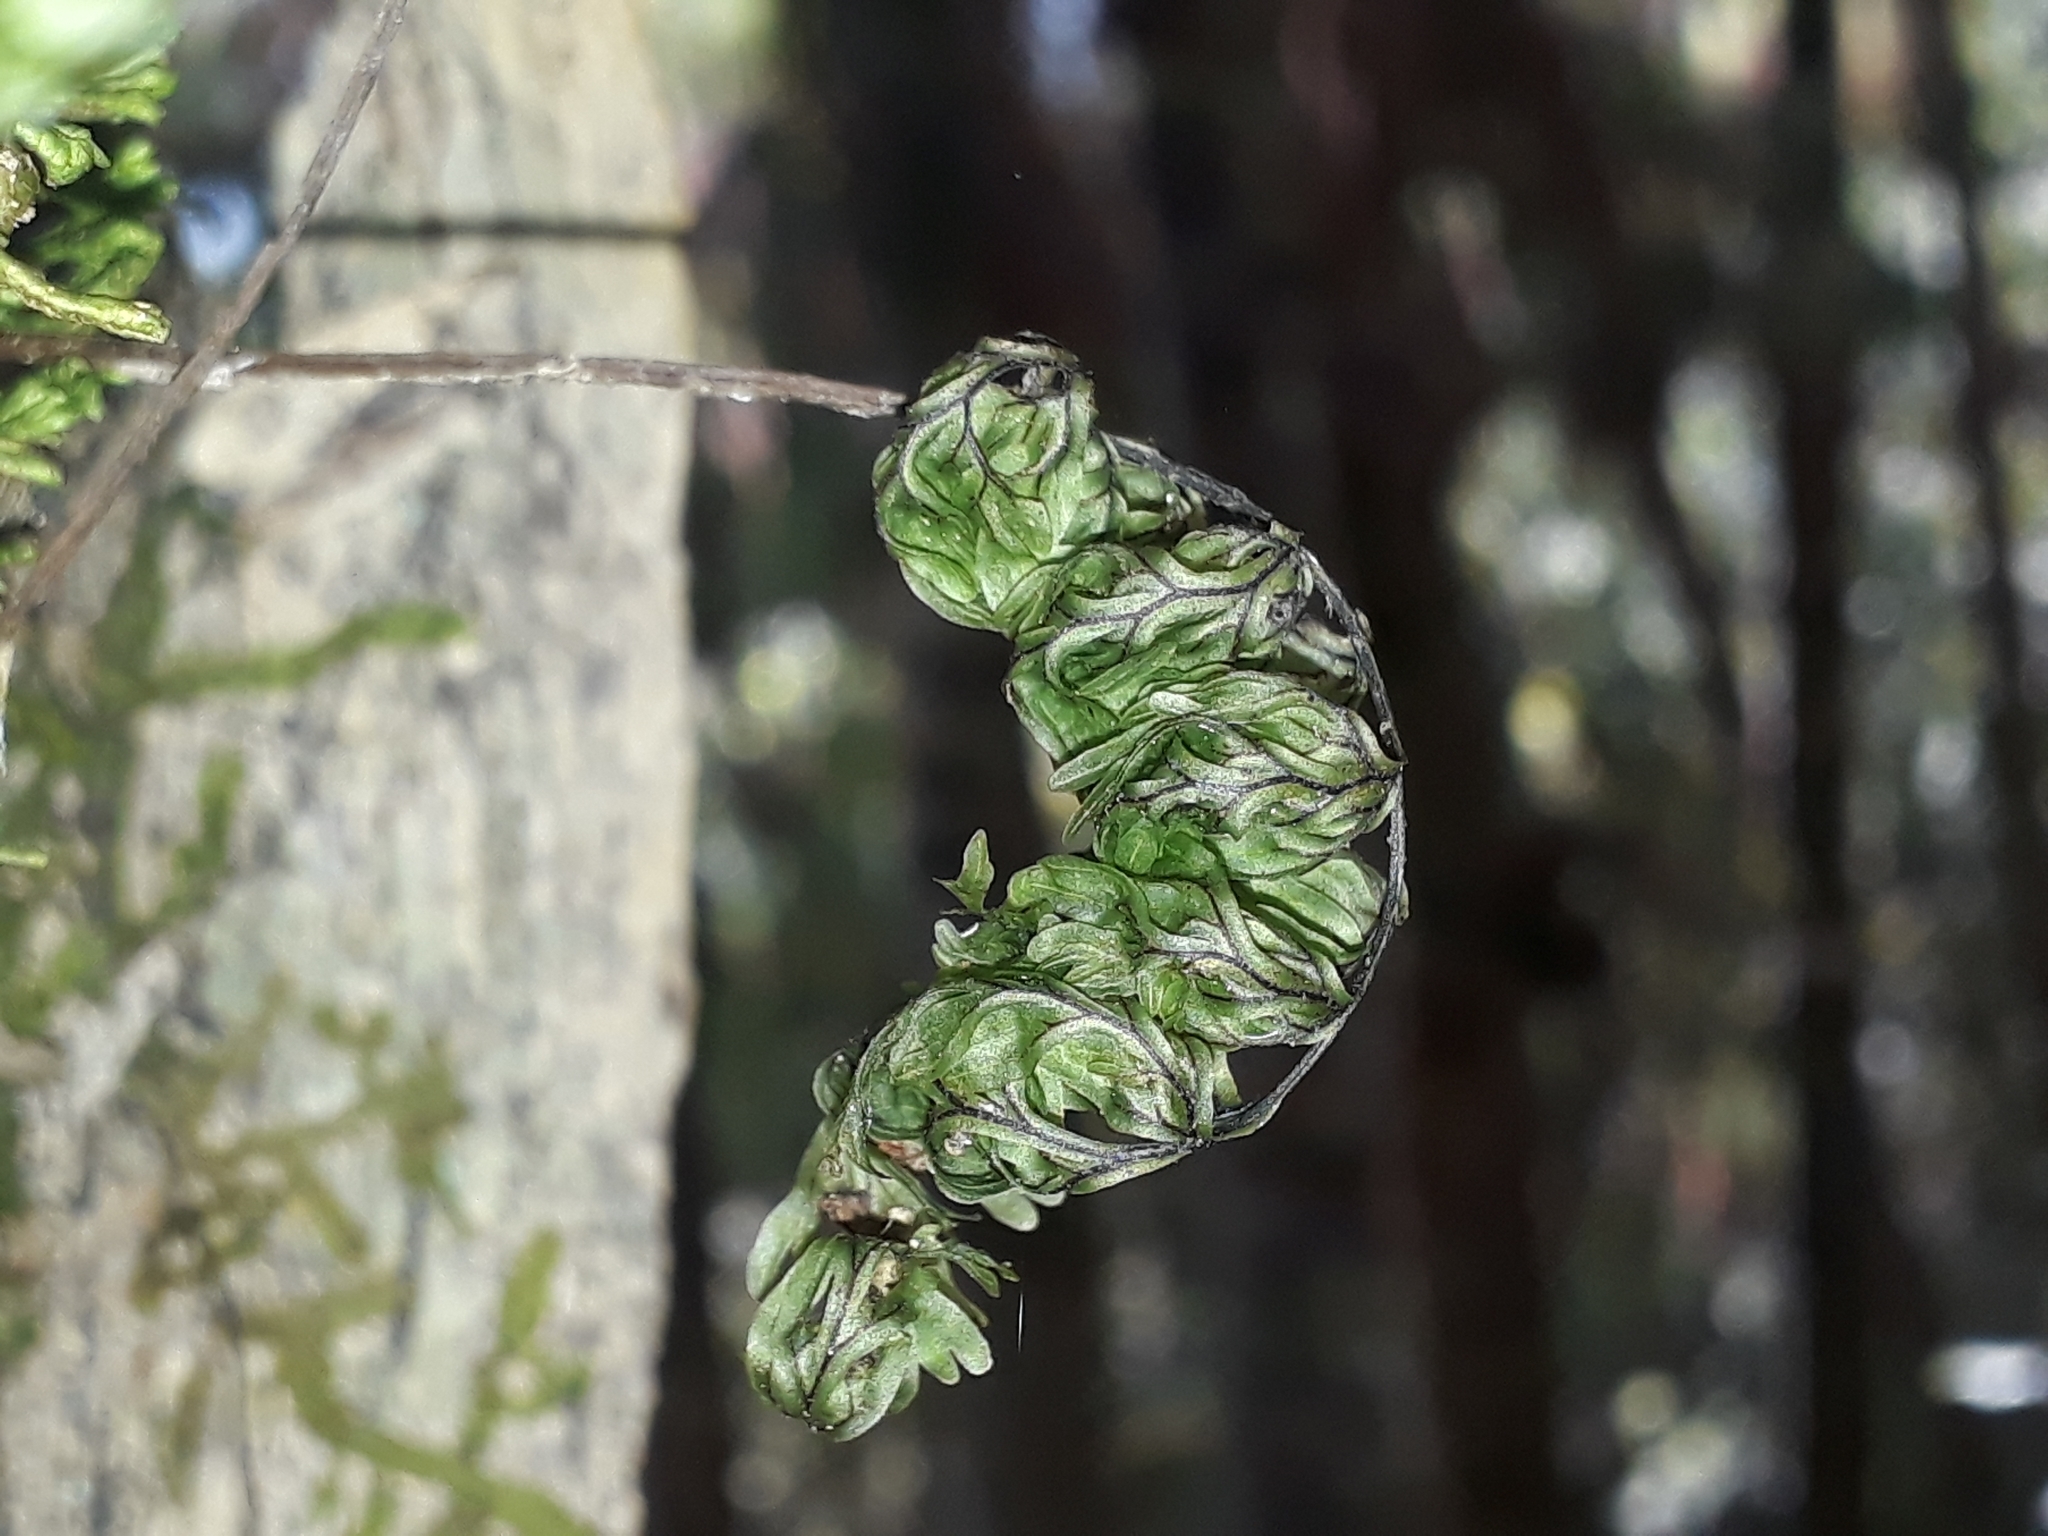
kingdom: Plantae
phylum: Tracheophyta
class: Polypodiopsida
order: Hymenophyllales
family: Hymenophyllaceae
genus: Hymenophyllum
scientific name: Hymenophyllum sanguinolentum
